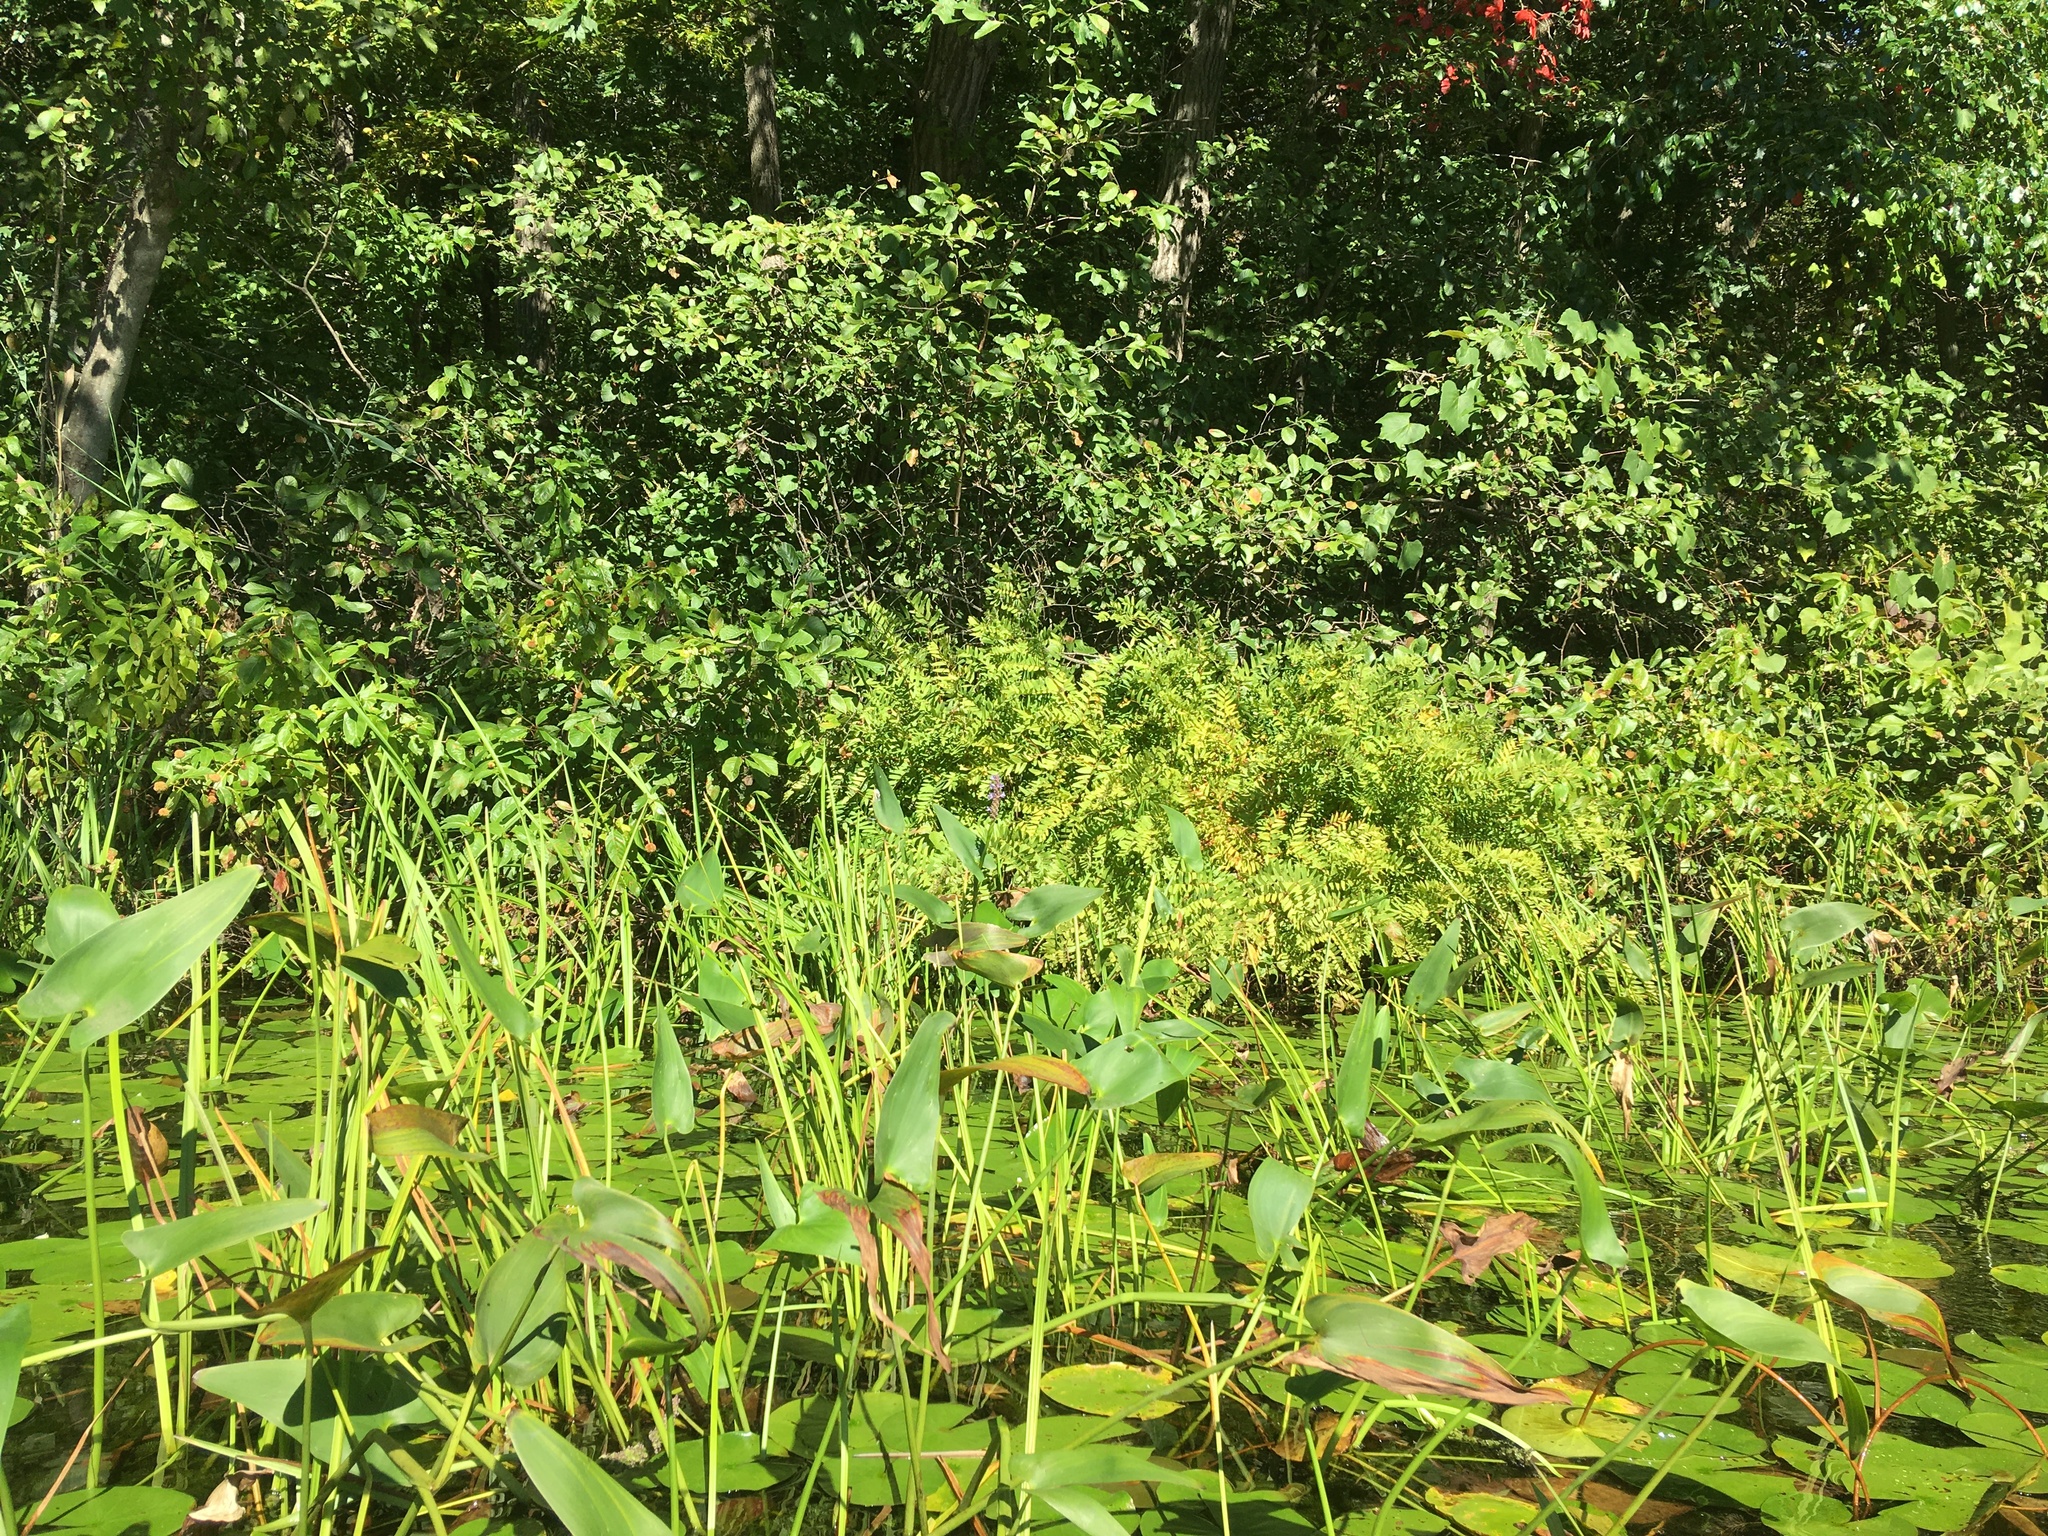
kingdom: Plantae
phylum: Tracheophyta
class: Magnoliopsida
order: Nymphaeales
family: Nymphaeaceae
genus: Nymphaea
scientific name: Nymphaea odorata
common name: Fragrant water-lily
